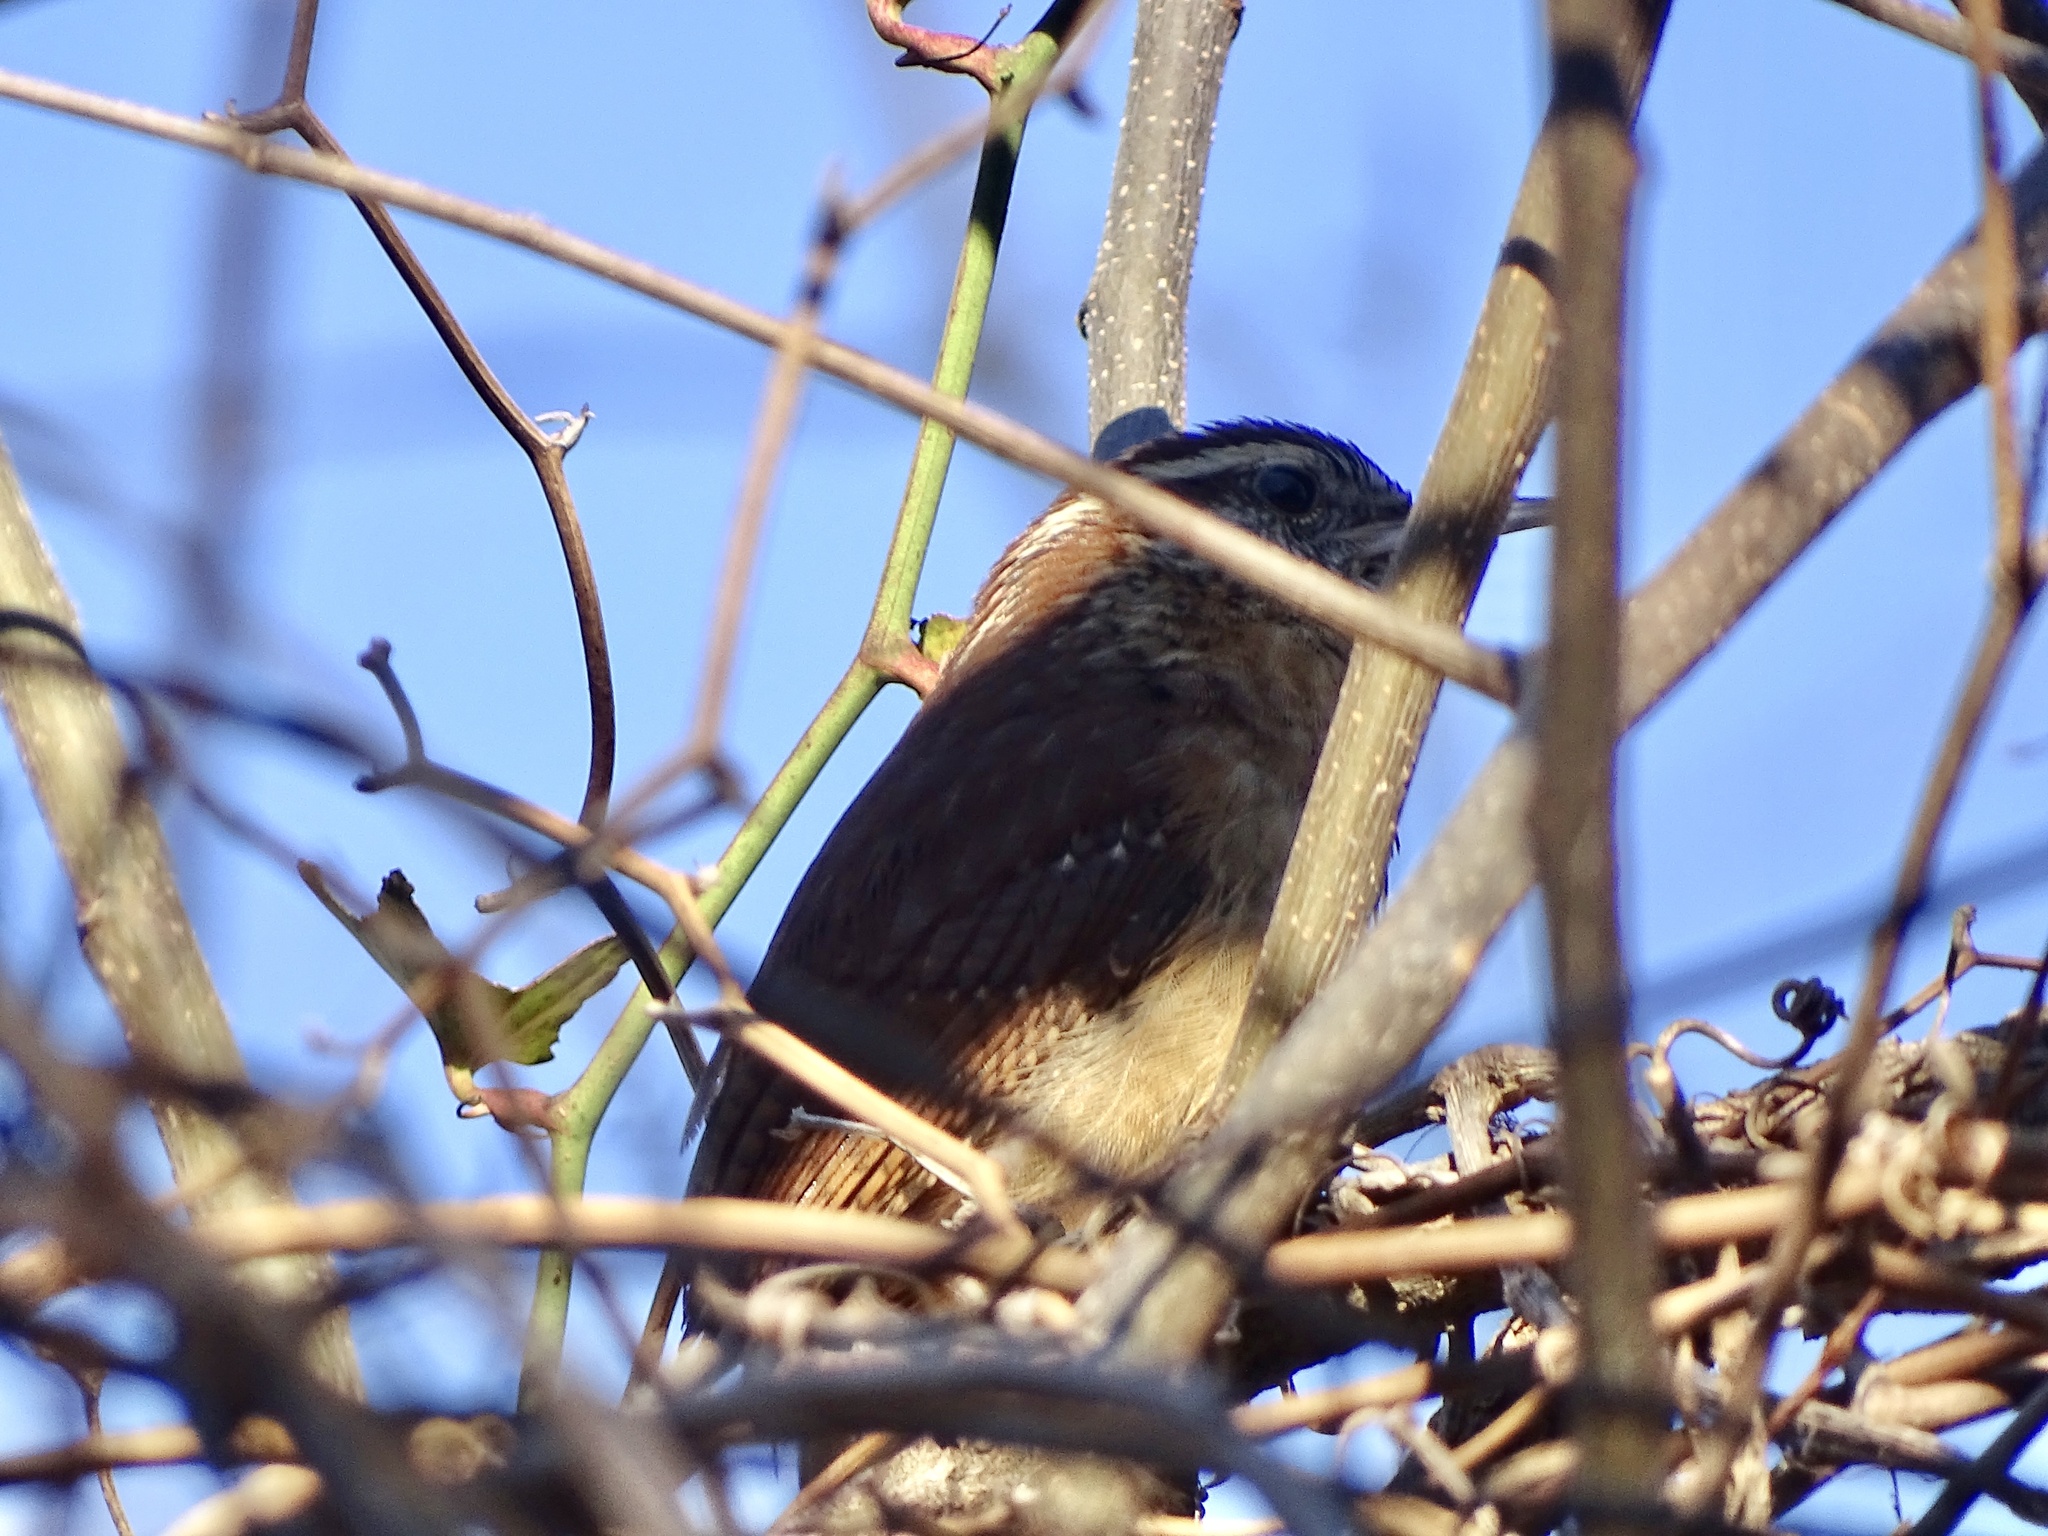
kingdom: Animalia
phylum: Chordata
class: Aves
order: Passeriformes
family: Troglodytidae
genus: Thryothorus
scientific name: Thryothorus ludovicianus
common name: Carolina wren
